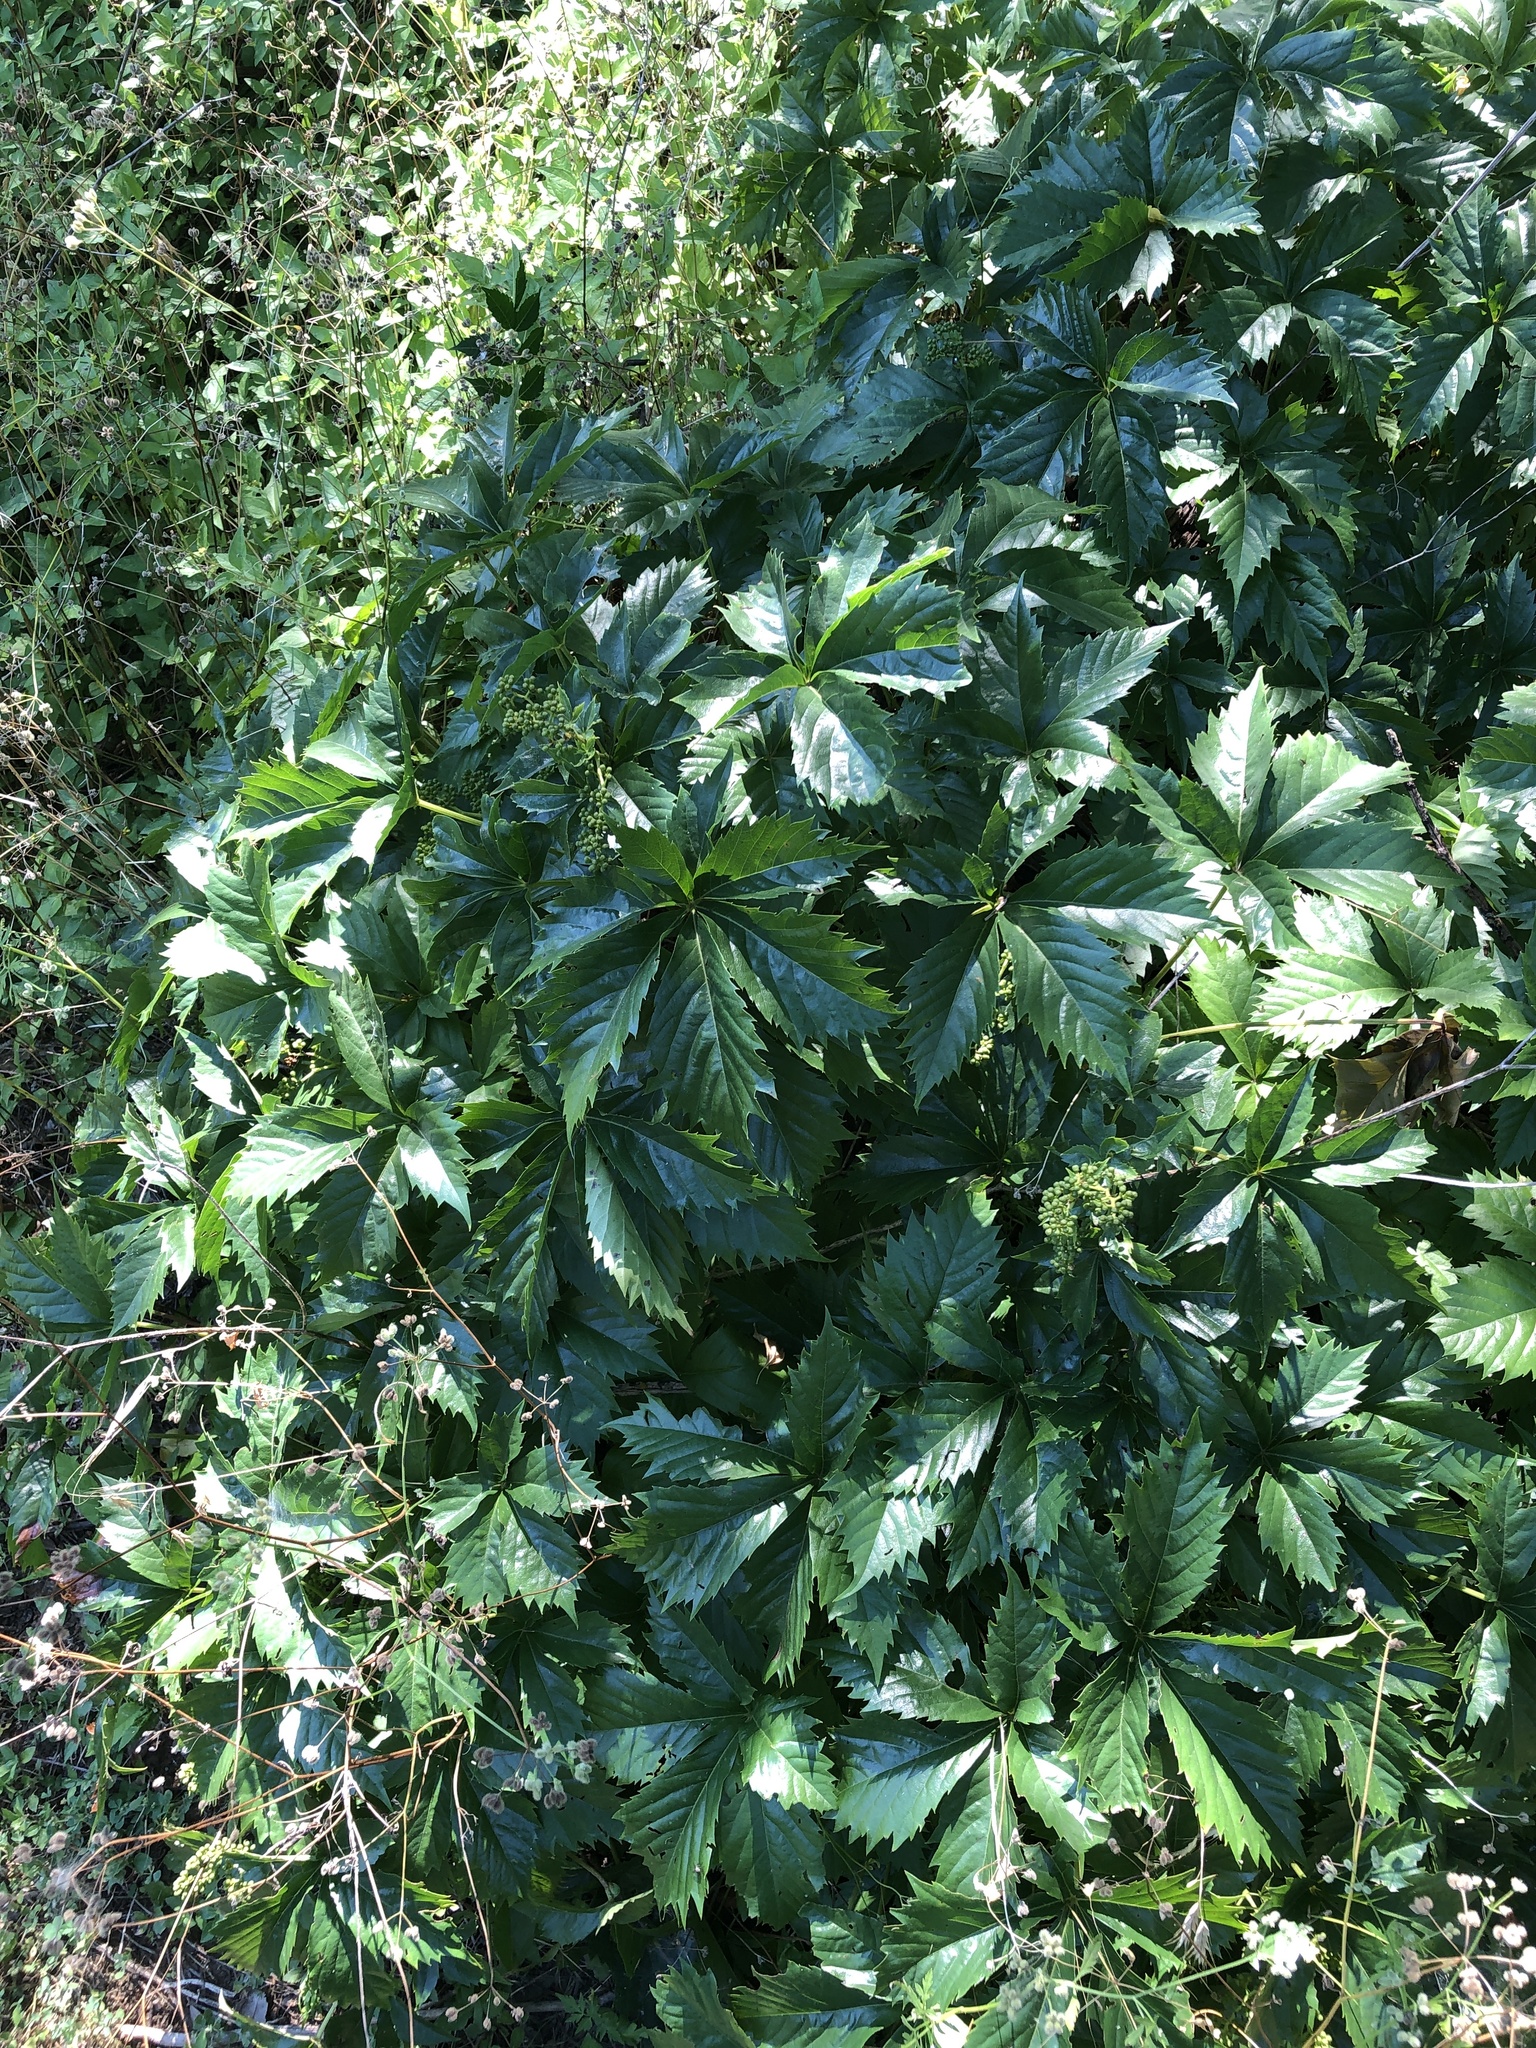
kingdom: Plantae
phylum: Tracheophyta
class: Magnoliopsida
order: Vitales
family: Vitaceae
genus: Parthenocissus
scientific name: Parthenocissus quinquefolia
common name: Virginia-creeper
